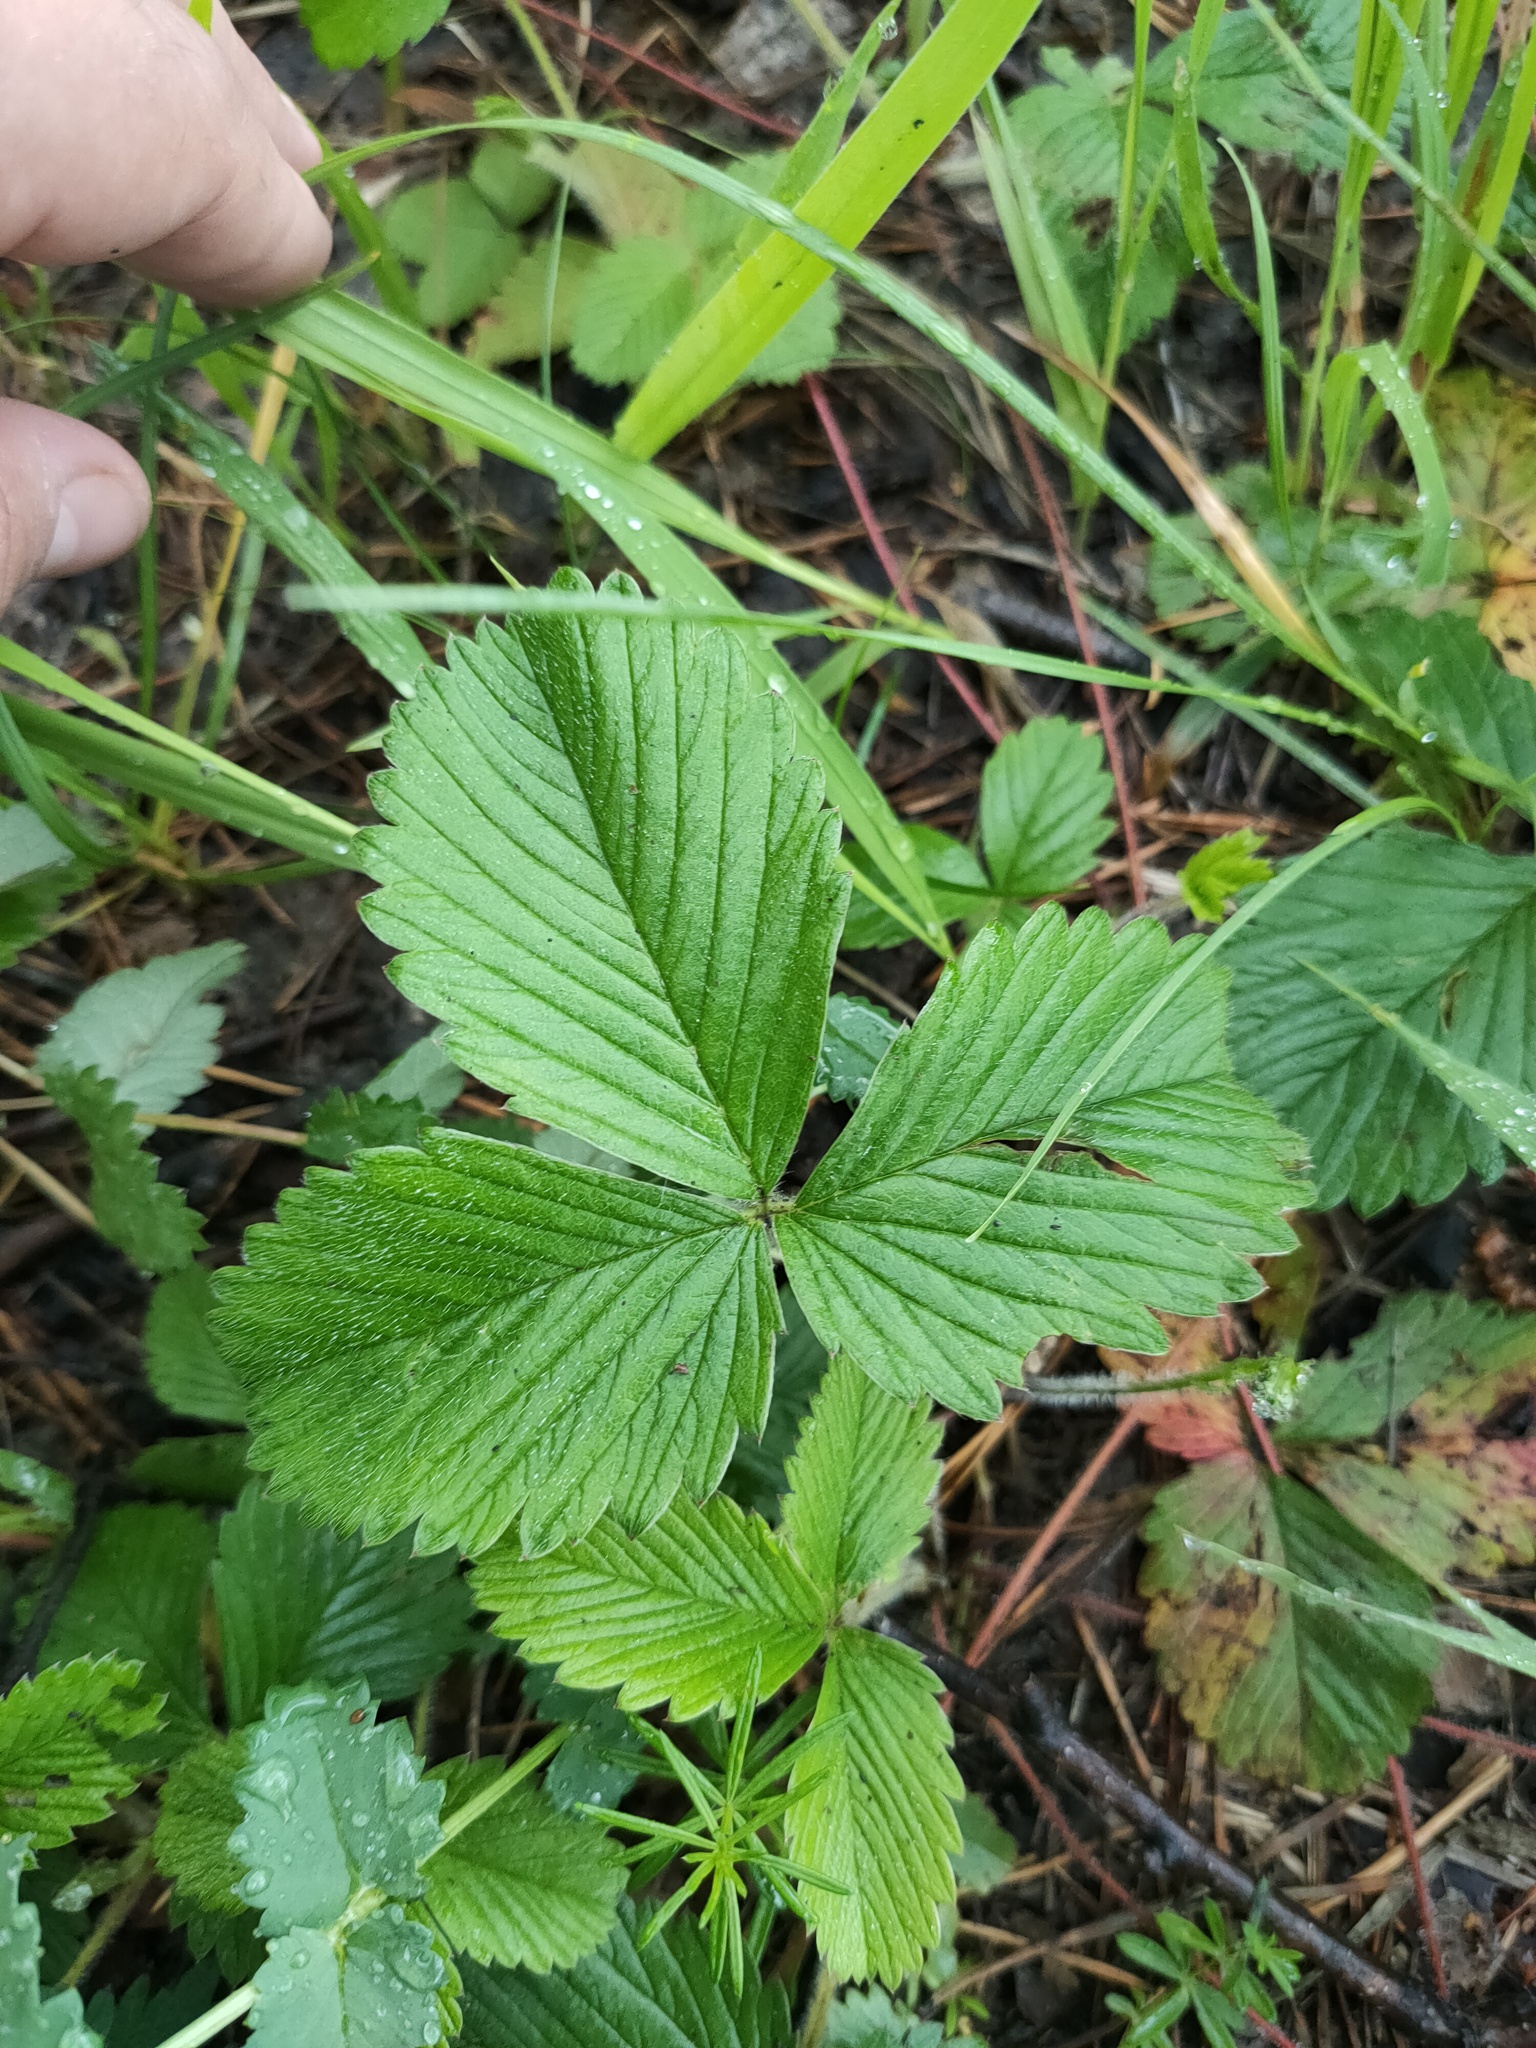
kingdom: Plantae
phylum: Tracheophyta
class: Magnoliopsida
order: Rosales
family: Rosaceae
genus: Fragaria
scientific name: Fragaria viridis
